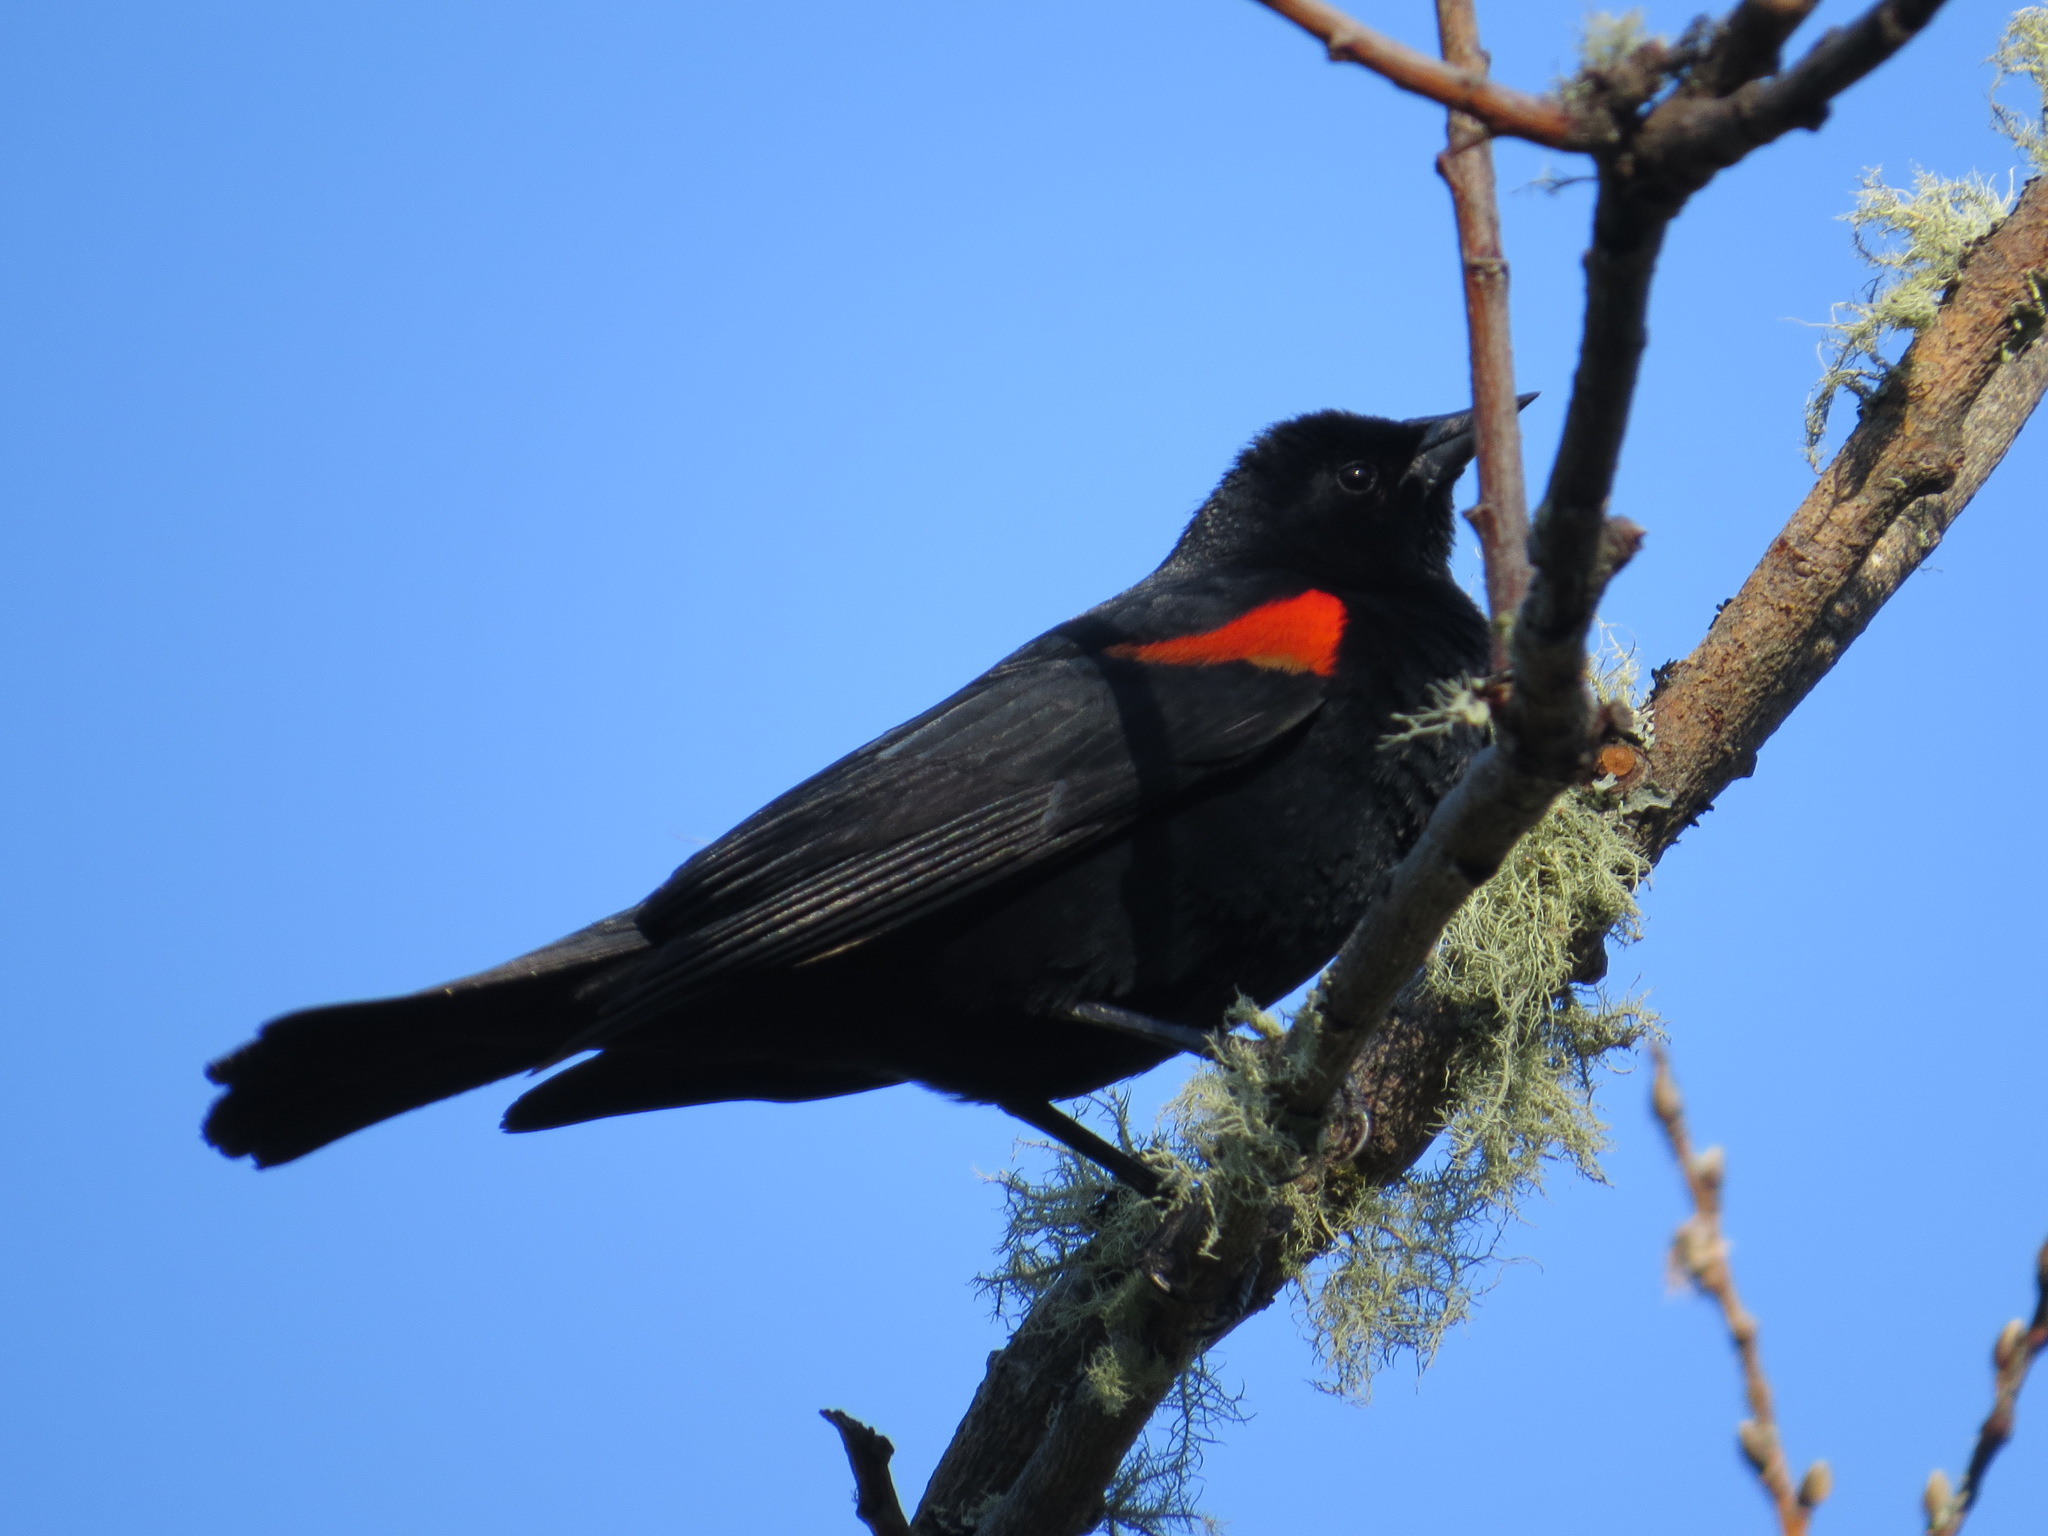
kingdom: Animalia
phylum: Chordata
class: Aves
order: Passeriformes
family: Icteridae
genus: Agelaius
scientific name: Agelaius phoeniceus
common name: Red-winged blackbird
